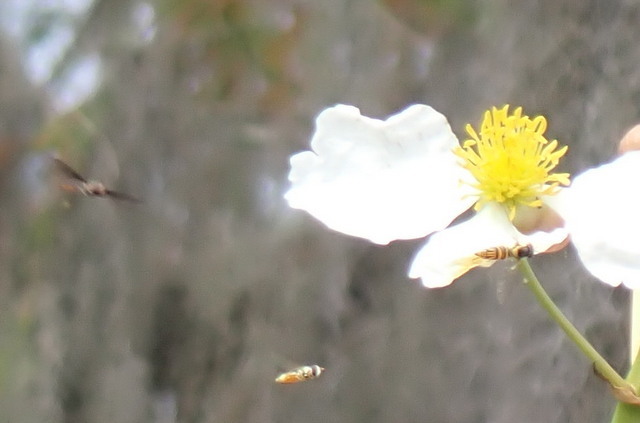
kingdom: Animalia
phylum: Arthropoda
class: Insecta
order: Diptera
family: Syrphidae
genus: Allograpta
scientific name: Allograpta
